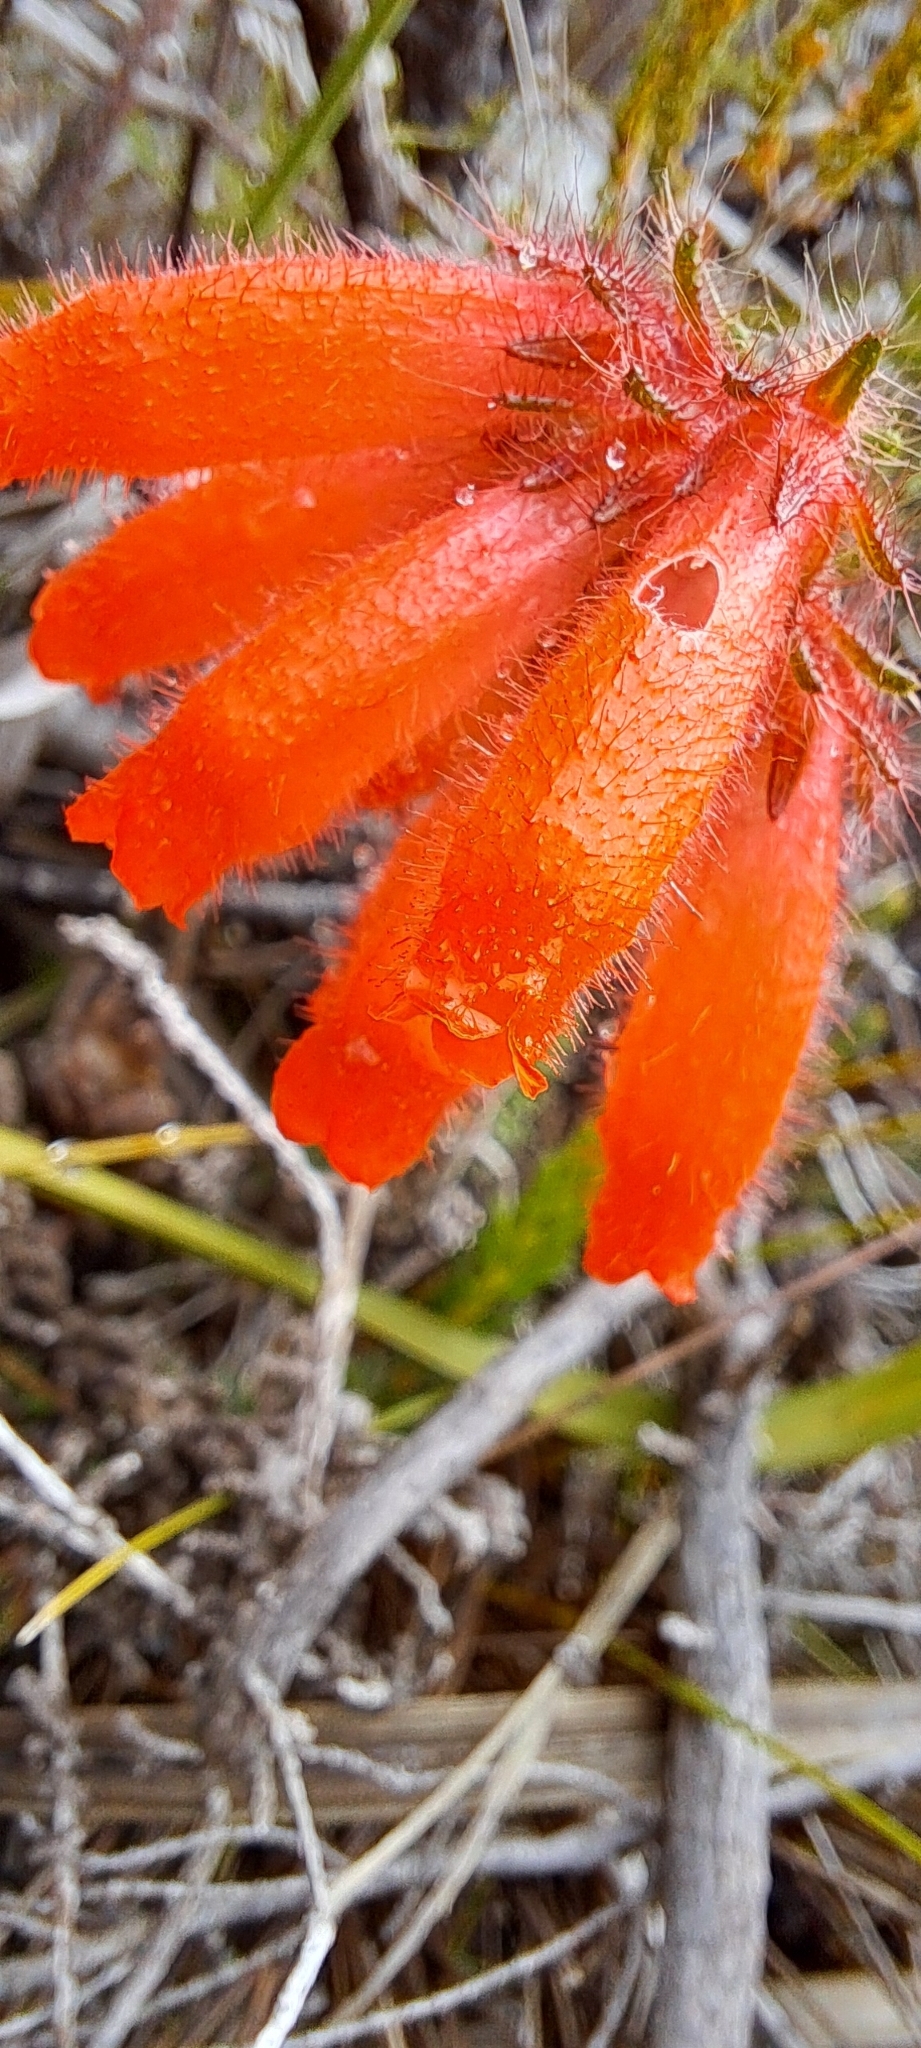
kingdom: Plantae
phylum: Tracheophyta
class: Magnoliopsida
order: Ericales
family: Ericaceae
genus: Erica
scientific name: Erica cerinthoides
